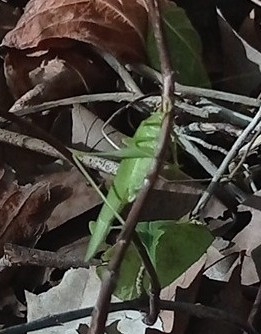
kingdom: Animalia
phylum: Arthropoda
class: Insecta
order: Orthoptera
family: Tettigoniidae
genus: Phaneroptera
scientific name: Phaneroptera nana
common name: Southern sickle bush-cricket
